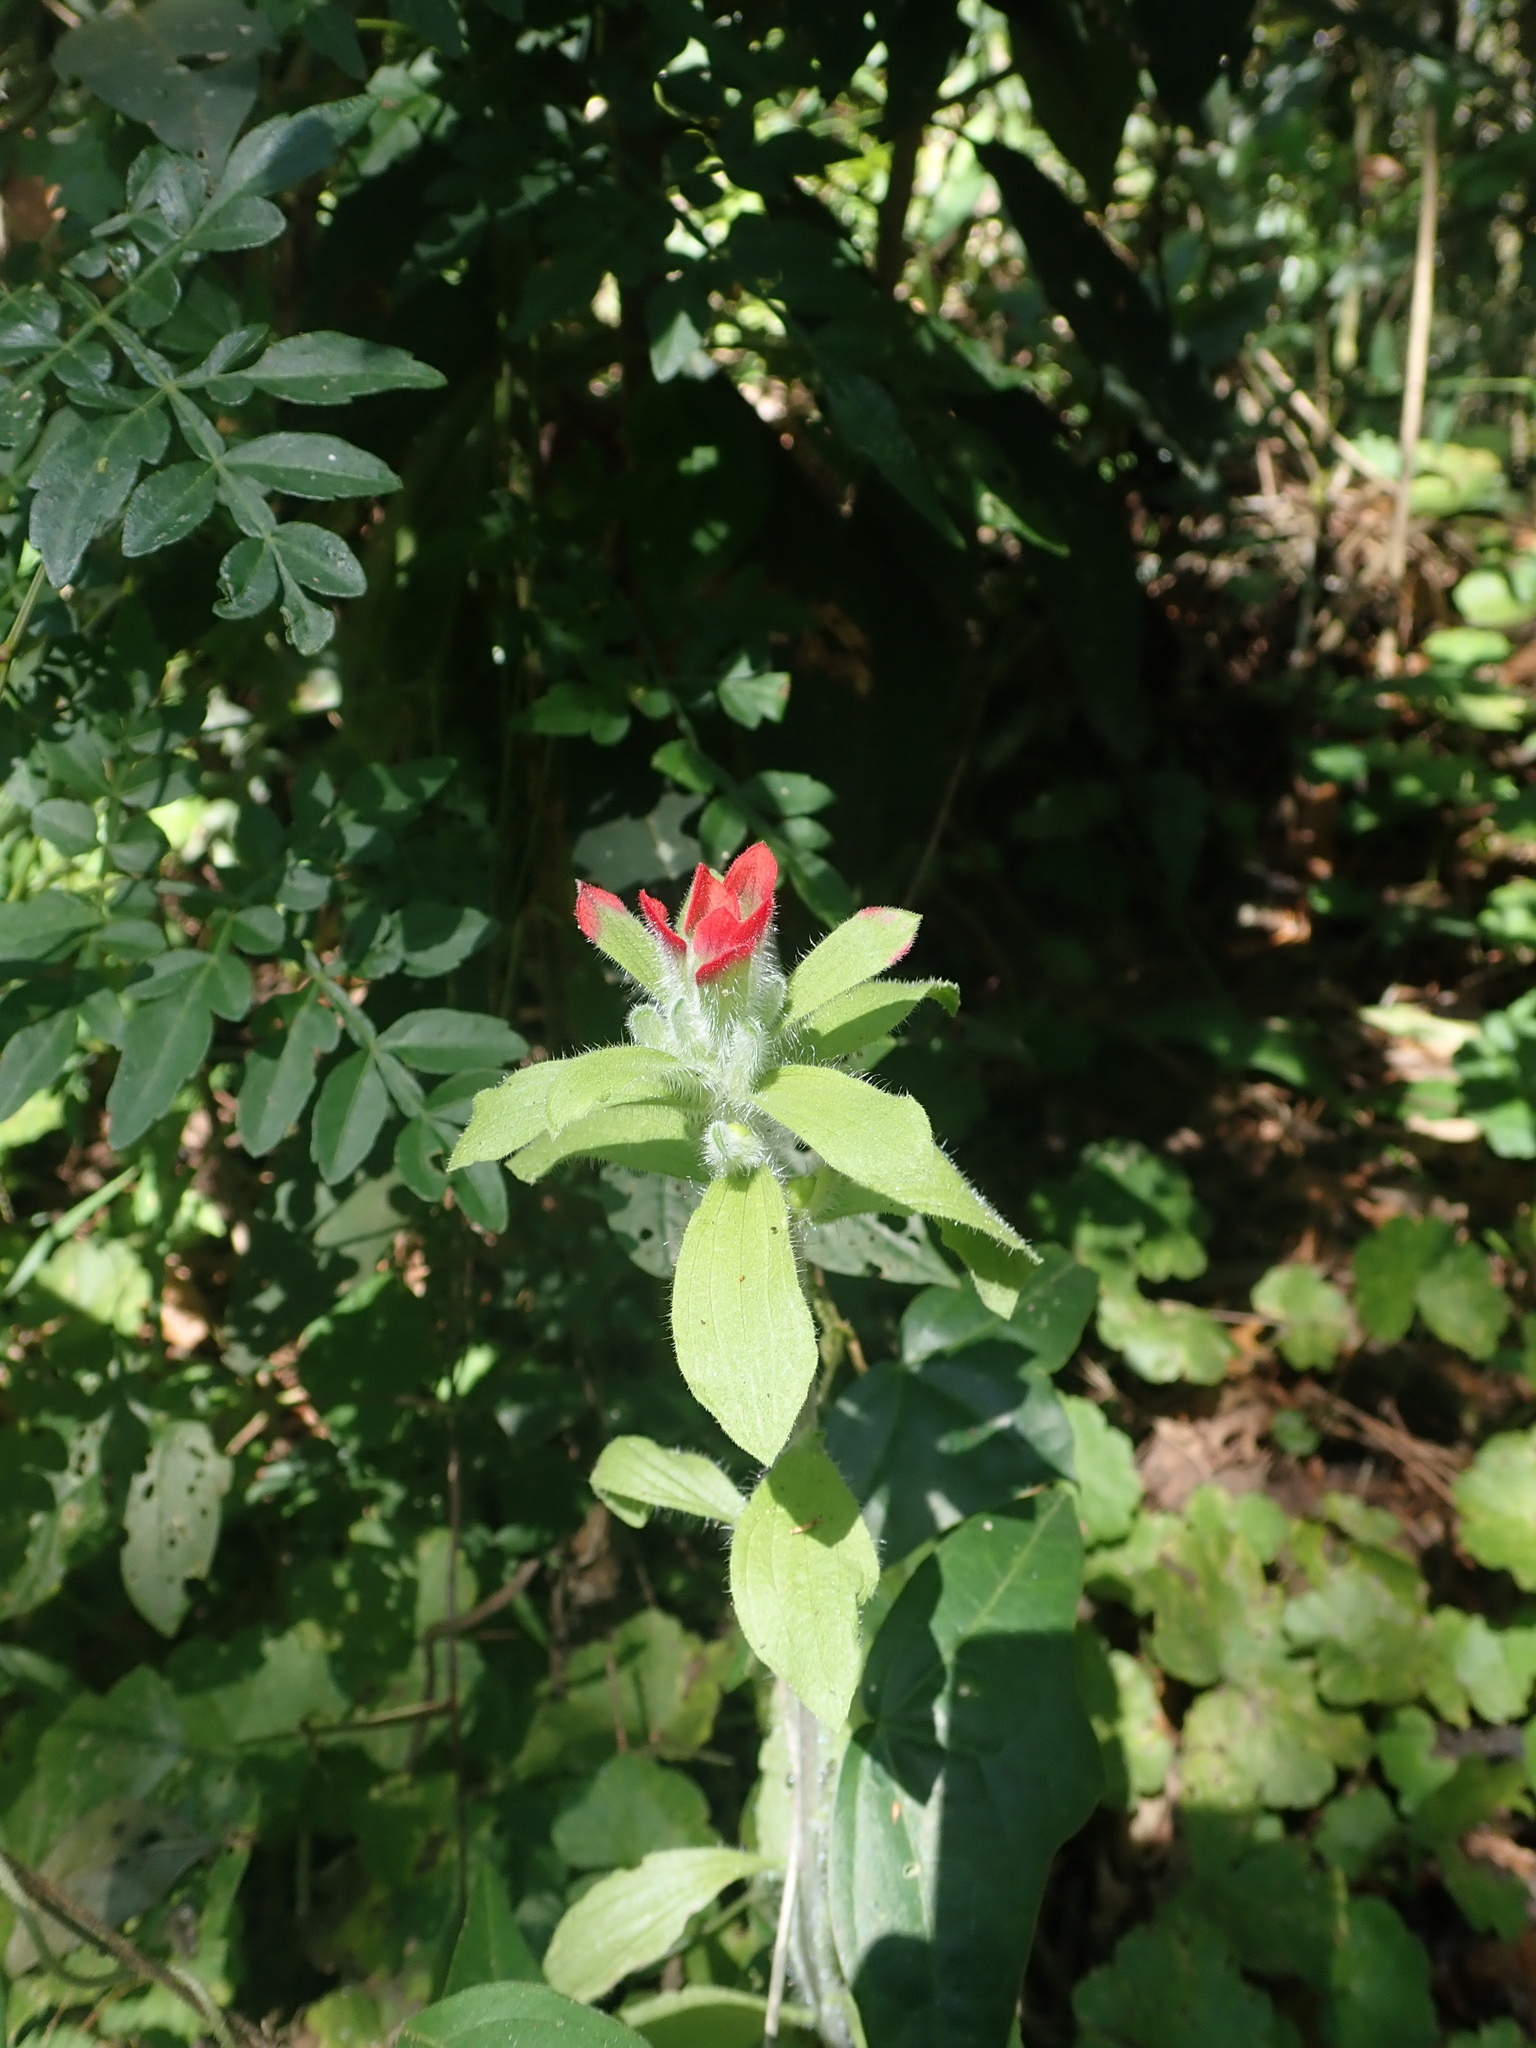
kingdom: Plantae
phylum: Tracheophyta
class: Magnoliopsida
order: Lamiales
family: Orobanchaceae
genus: Castilleja
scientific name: Castilleja arvensis
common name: Indian paintbrush
